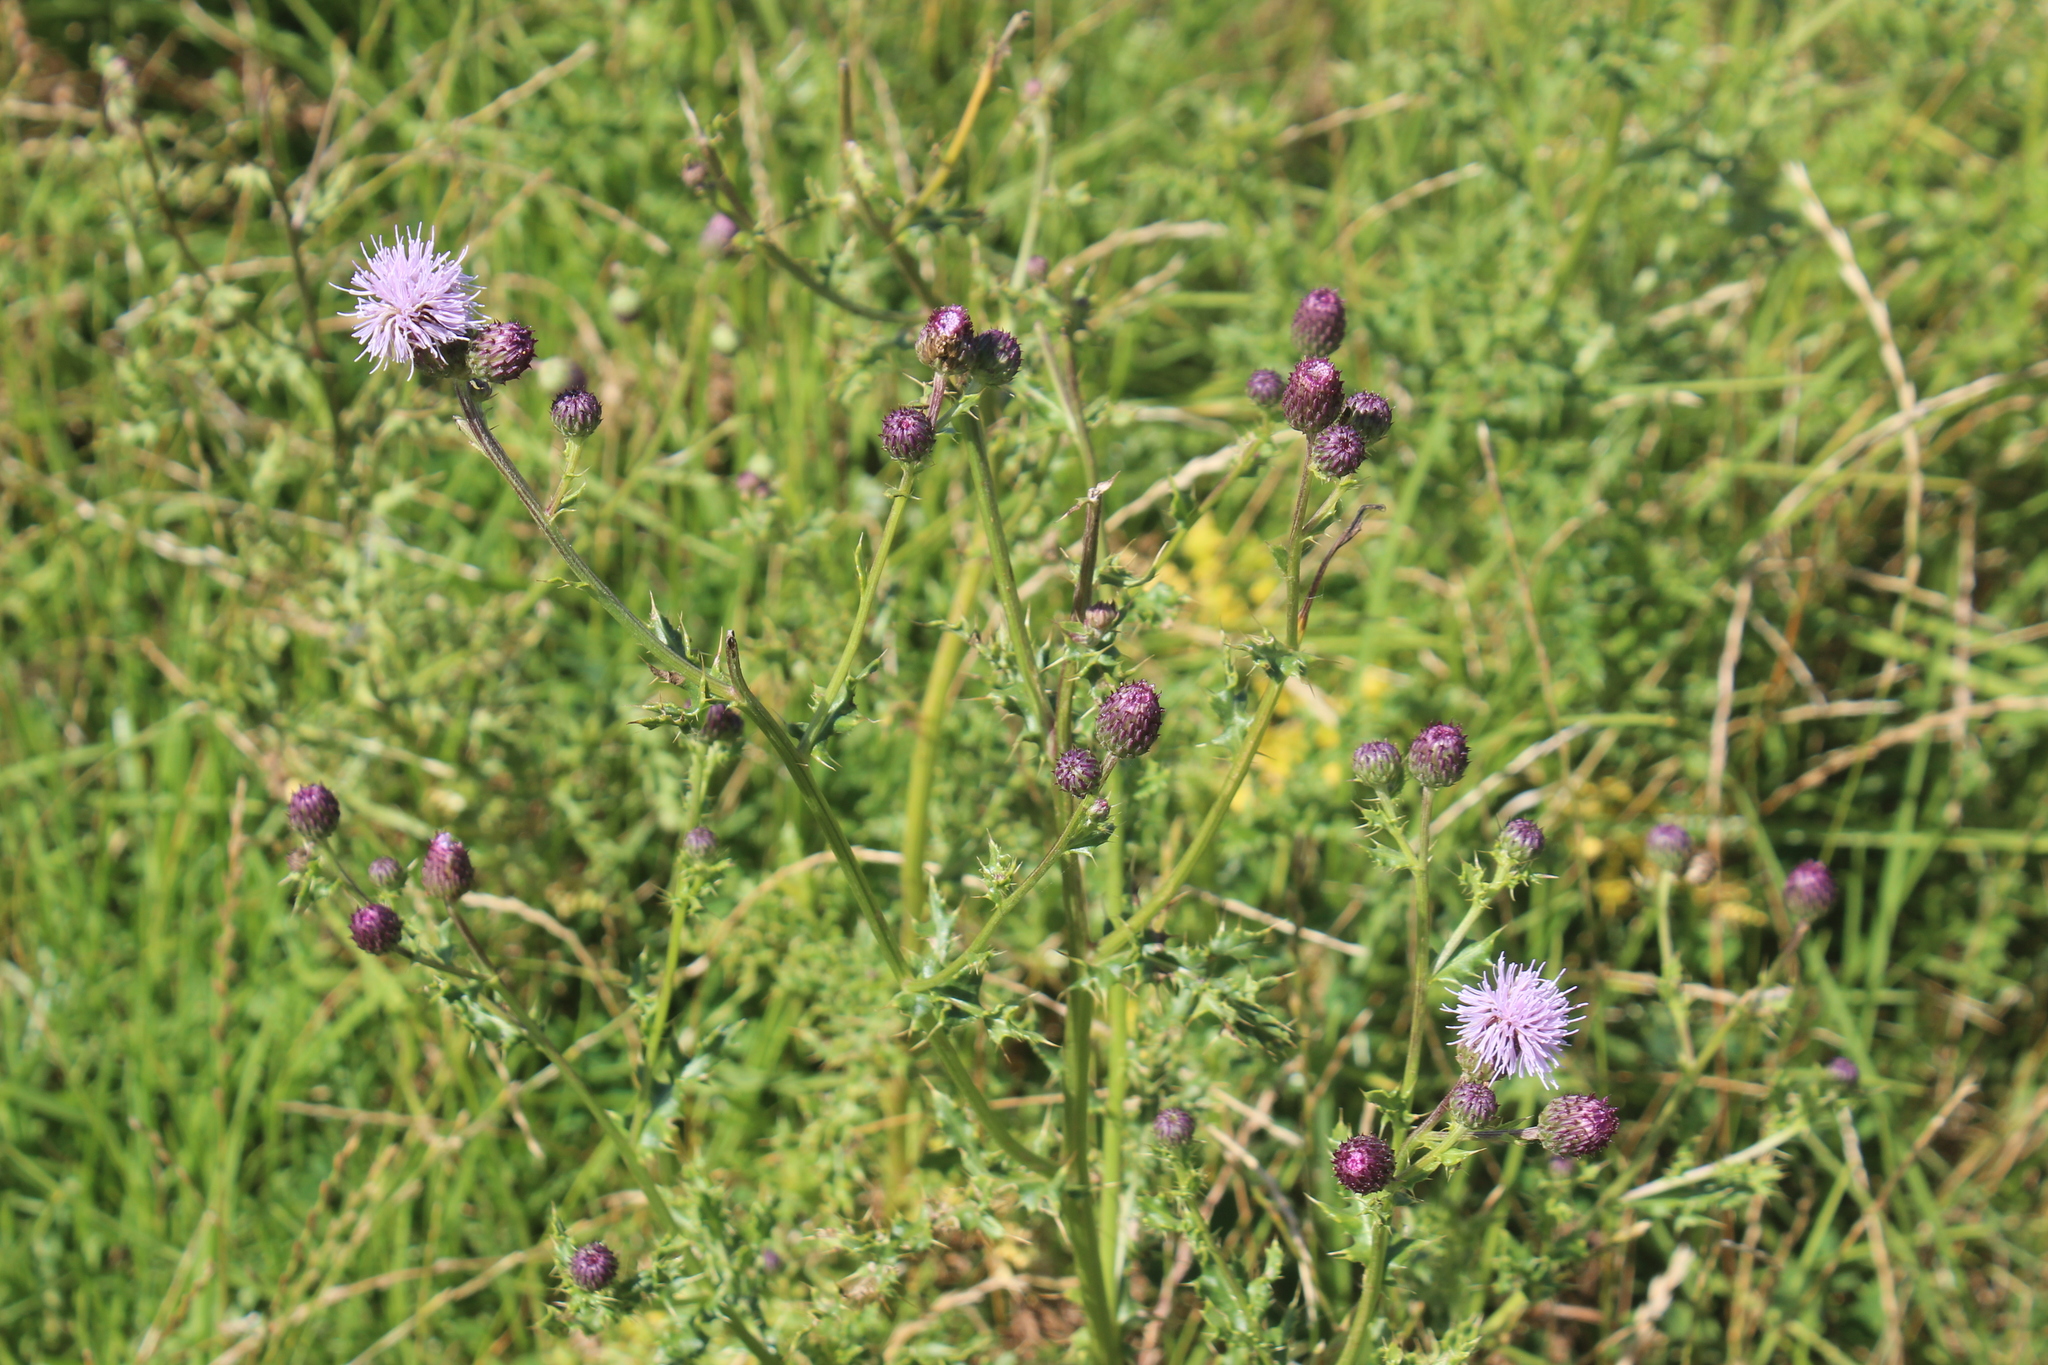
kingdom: Plantae
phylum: Tracheophyta
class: Magnoliopsida
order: Asterales
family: Asteraceae
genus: Cirsium
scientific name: Cirsium arvense
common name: Creeping thistle
